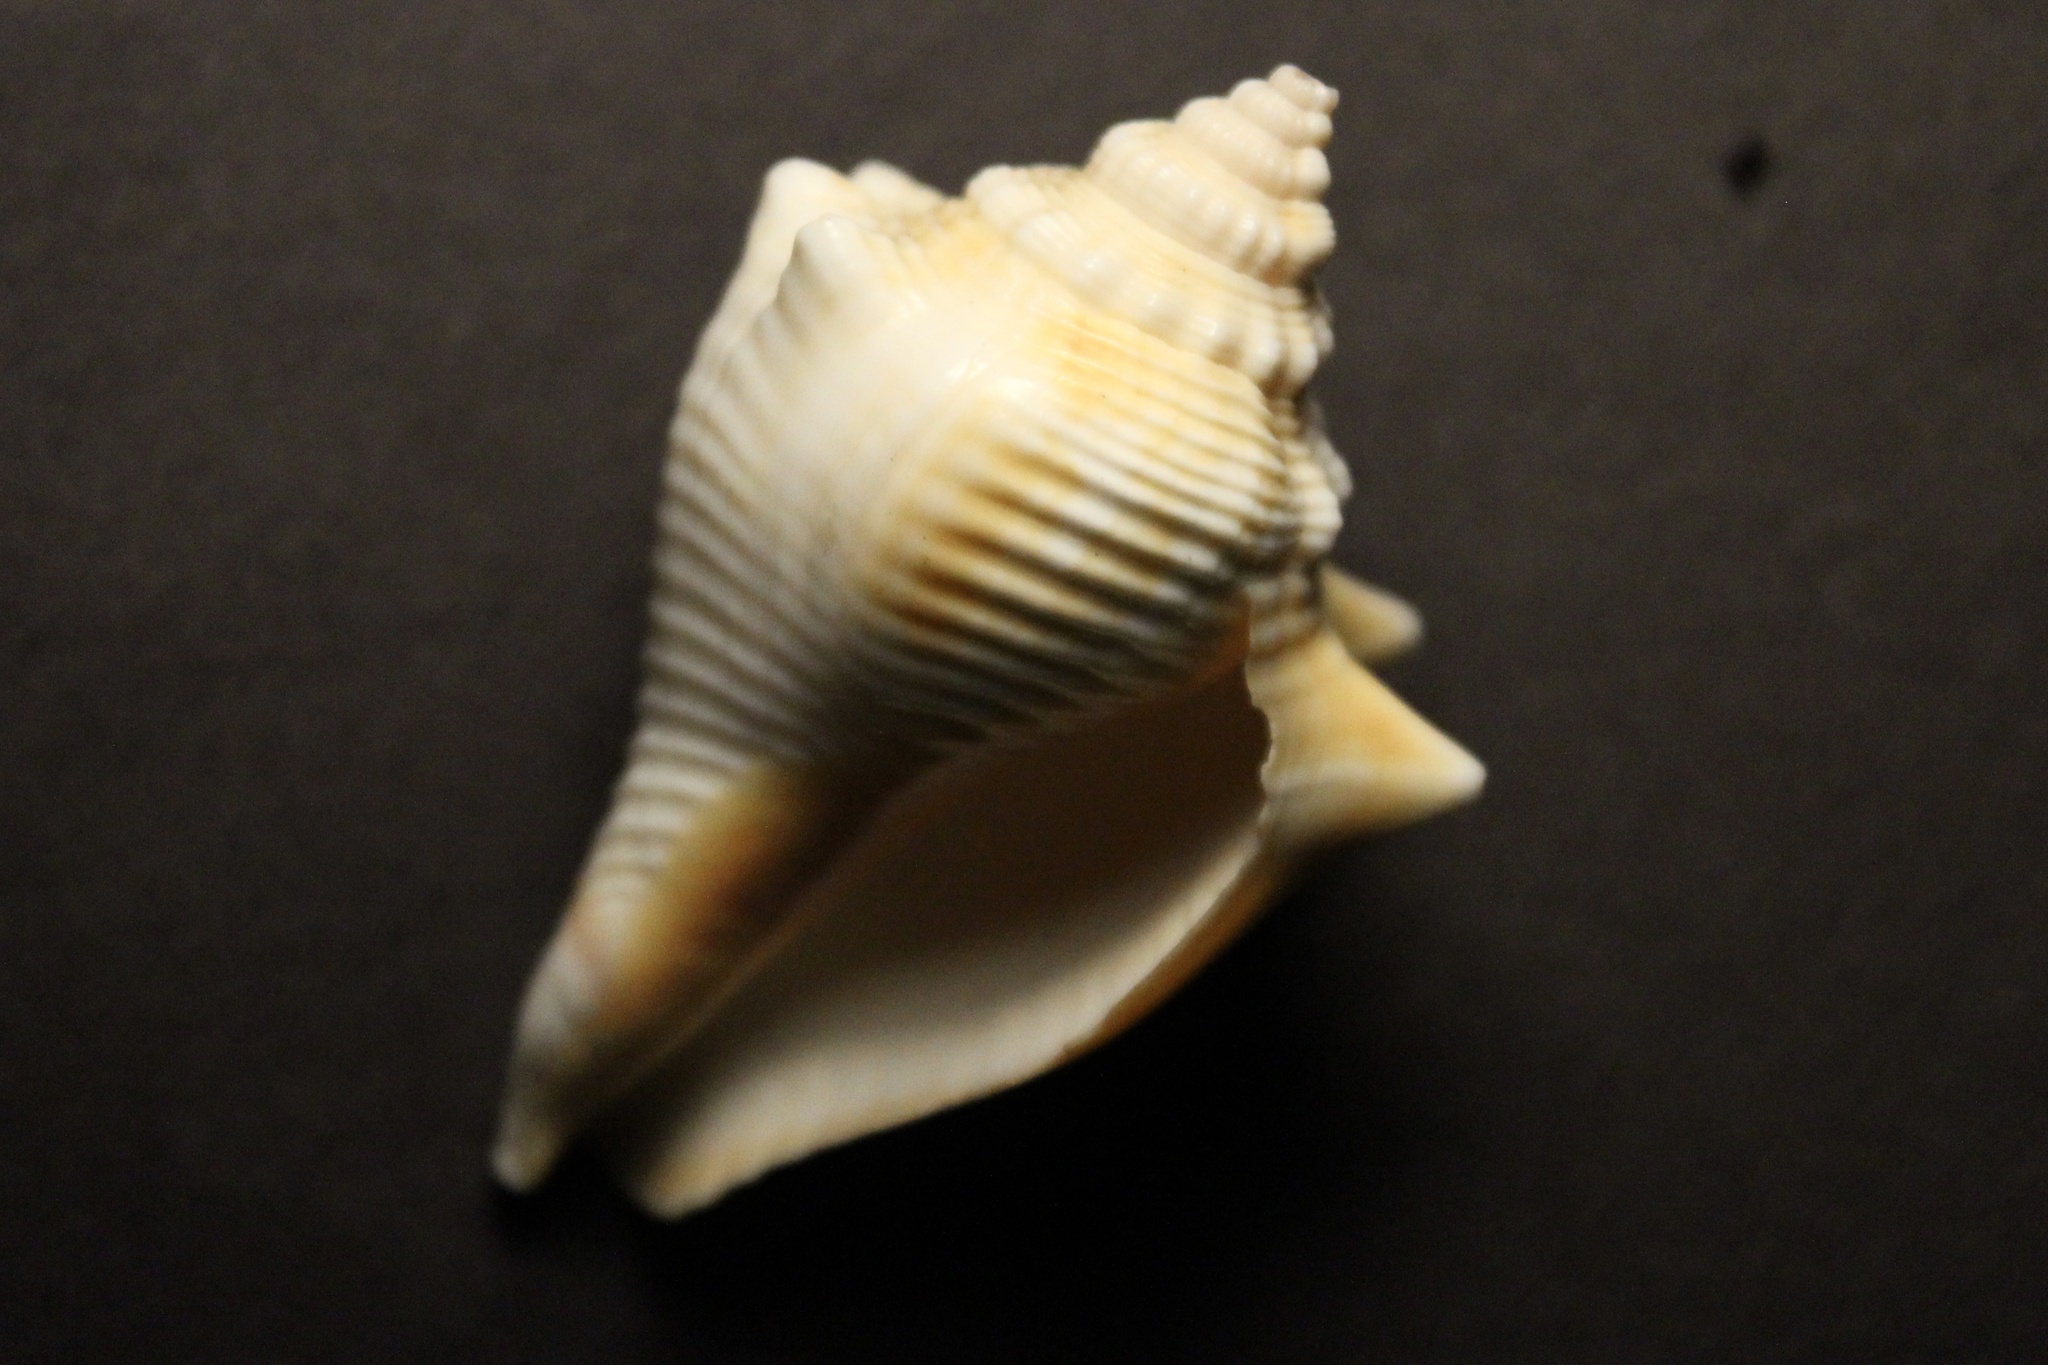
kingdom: Animalia
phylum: Mollusca
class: Gastropoda
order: Littorinimorpha
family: Strombidae
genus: Strombus
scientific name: Strombus alatus
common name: Florida fighting conch
